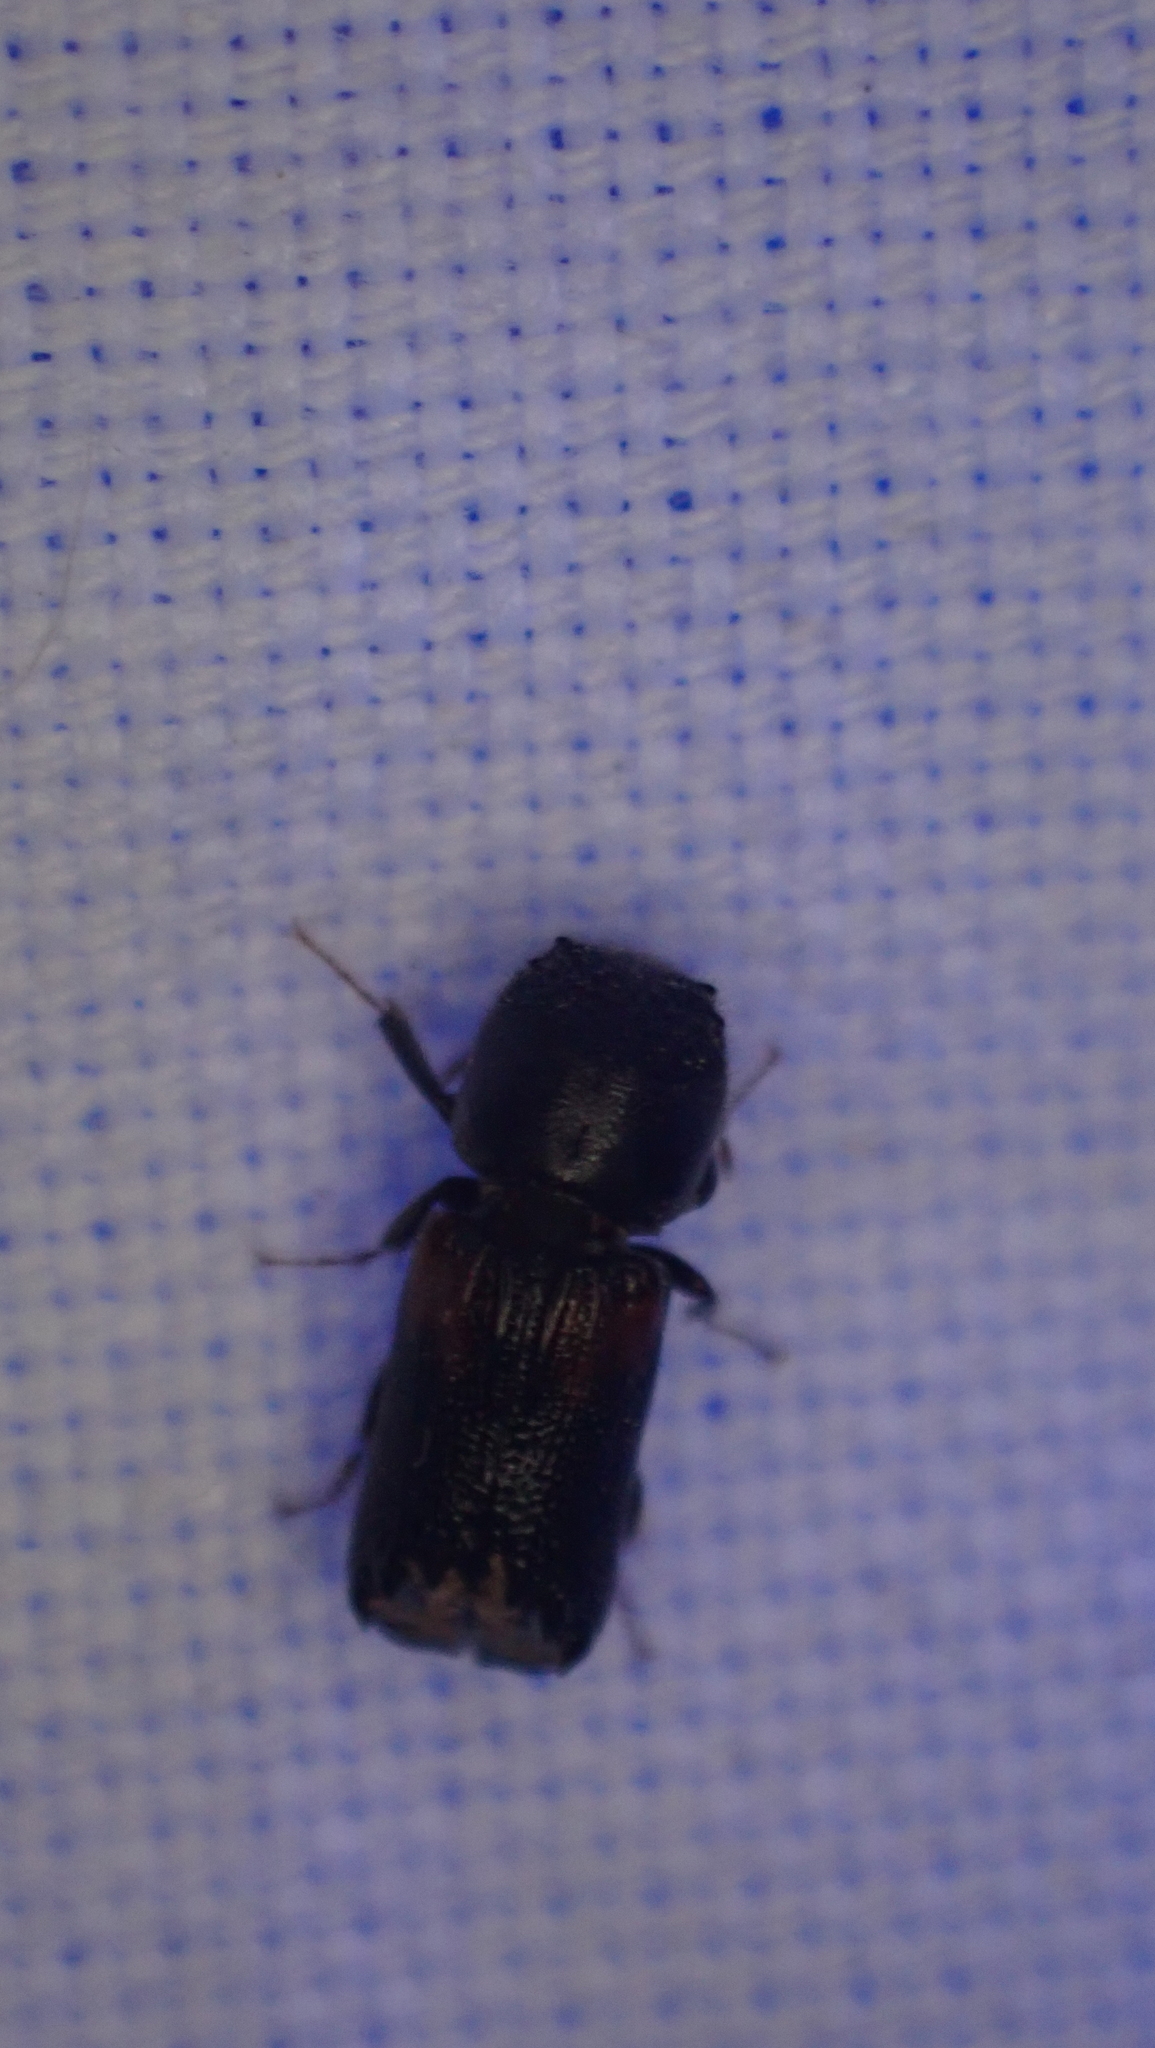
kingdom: Animalia
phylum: Arthropoda
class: Insecta
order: Coleoptera
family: Bostrichidae
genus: Xylobiops
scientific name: Xylobiops basilaris
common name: Red-shouldered bostrichid
